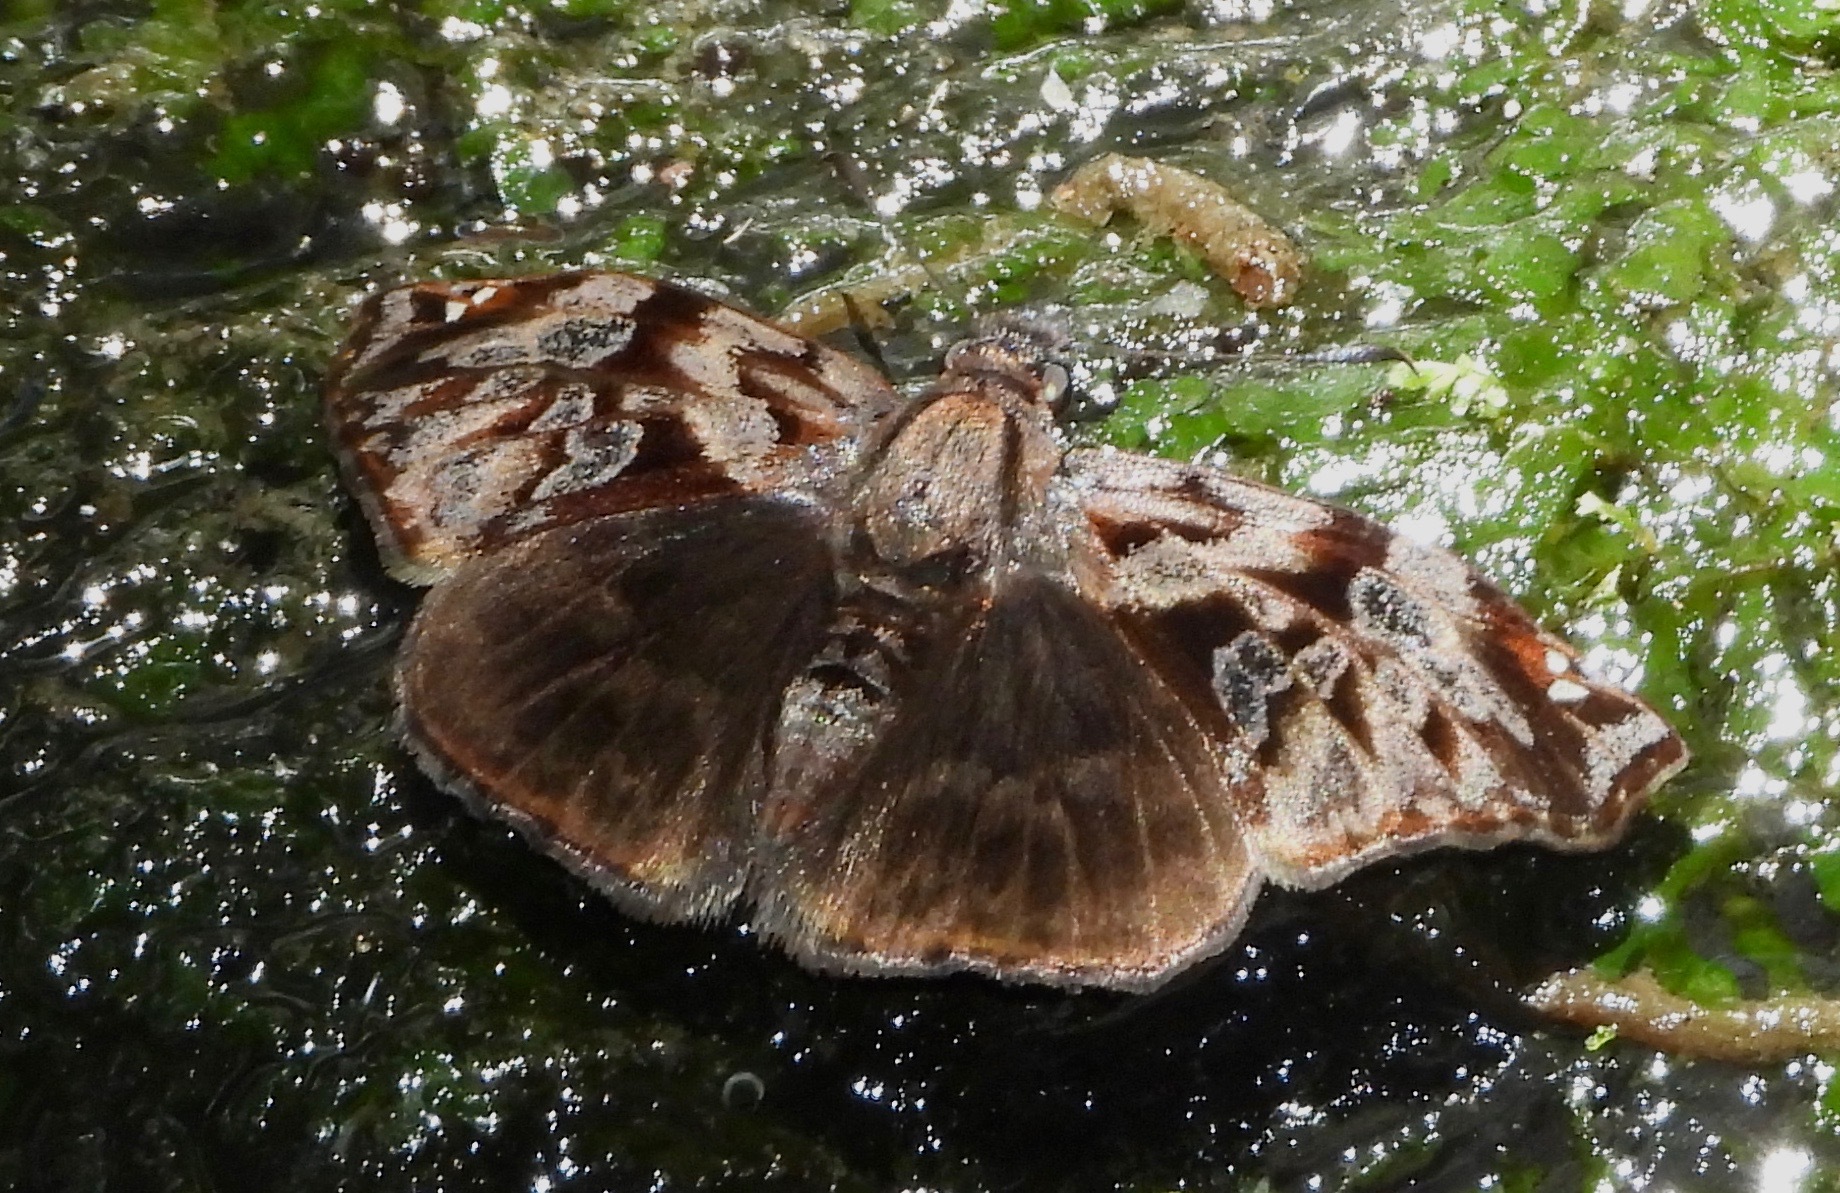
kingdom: Animalia
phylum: Arthropoda
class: Insecta
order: Lepidoptera
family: Hesperiidae
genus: Noctuana
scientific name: Noctuana haematospila
